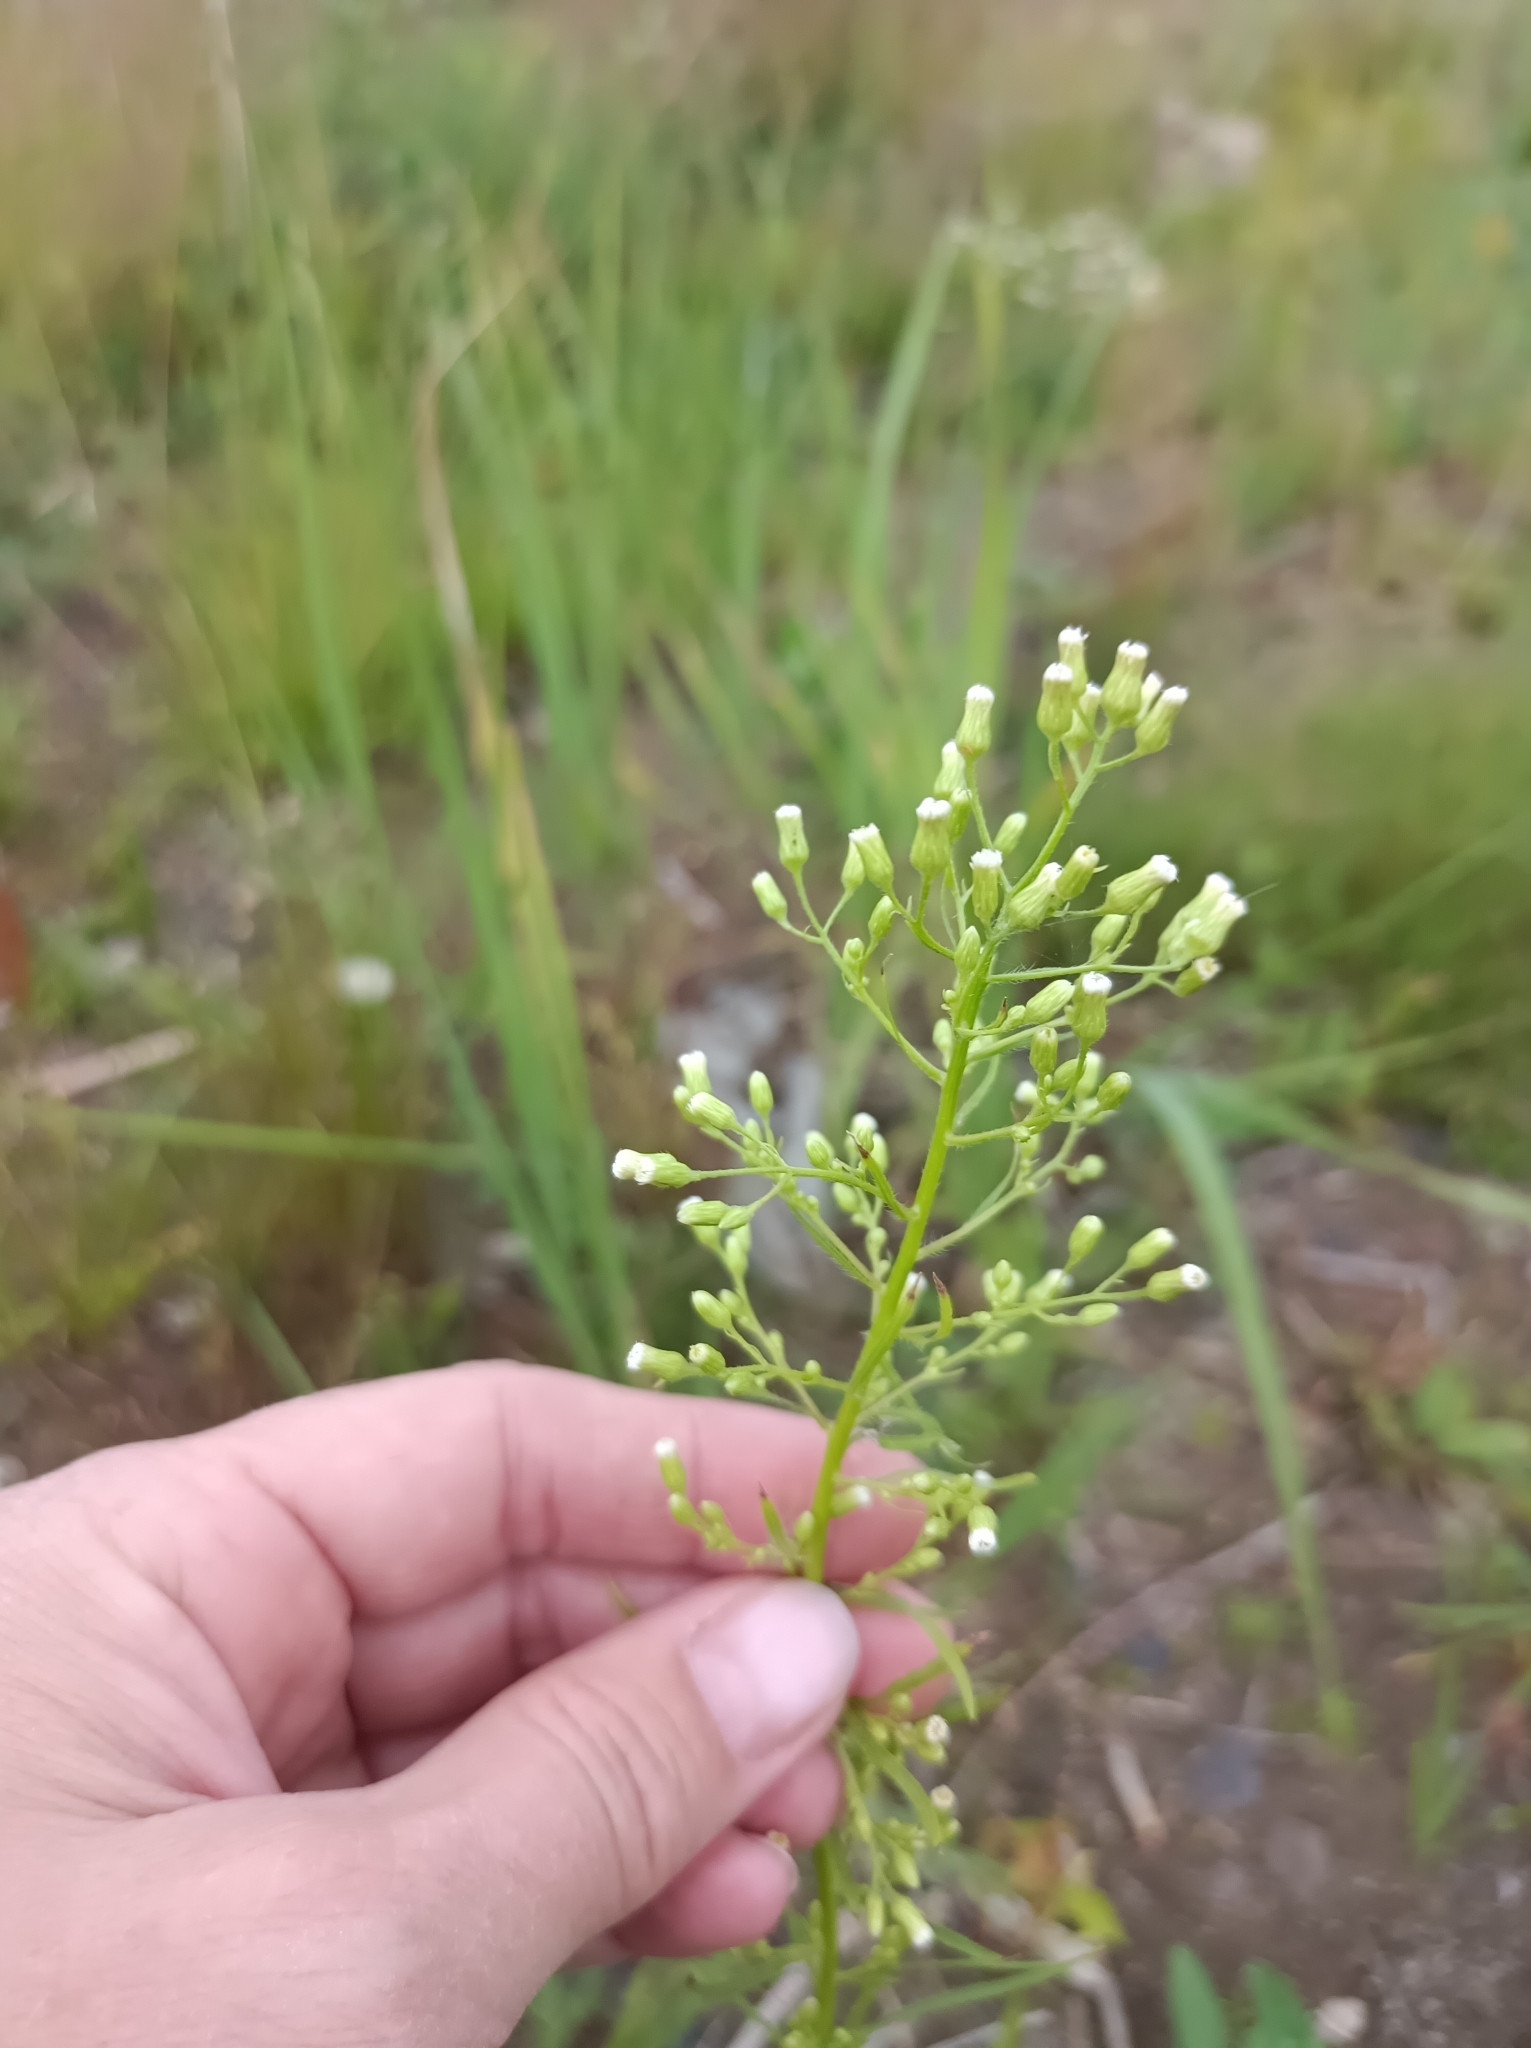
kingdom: Plantae
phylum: Tracheophyta
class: Magnoliopsida
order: Asterales
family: Asteraceae
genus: Erigeron
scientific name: Erigeron canadensis
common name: Canadian fleabane
